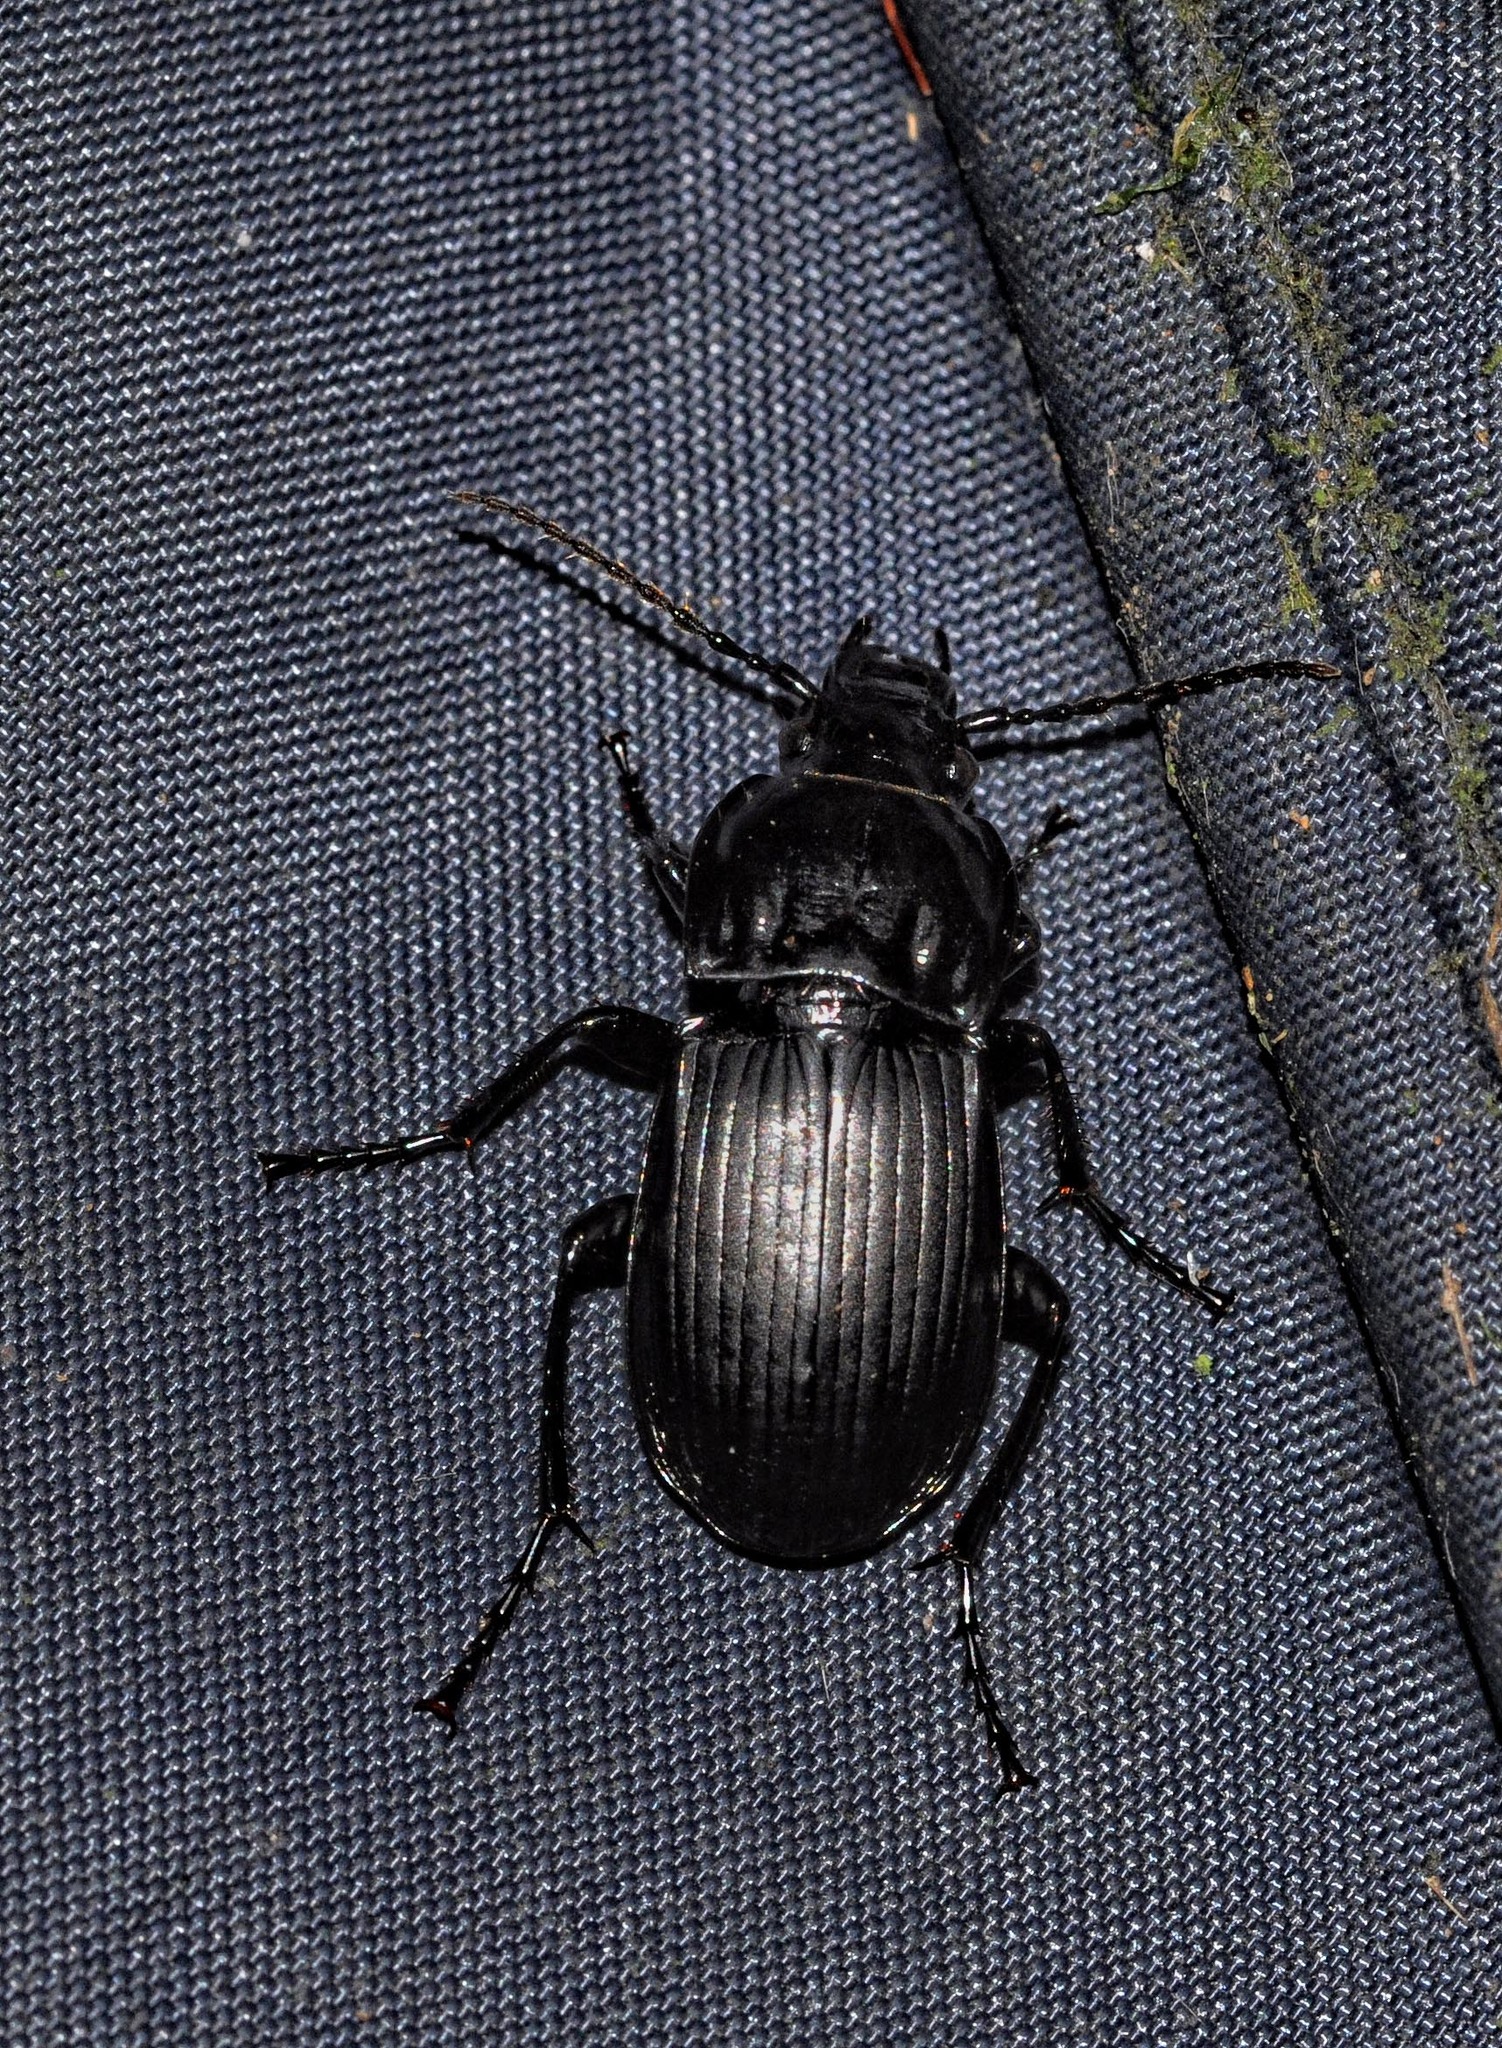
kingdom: Animalia
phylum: Arthropoda
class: Insecta
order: Coleoptera
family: Carabidae
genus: Abax
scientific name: Abax parallelepipedus
